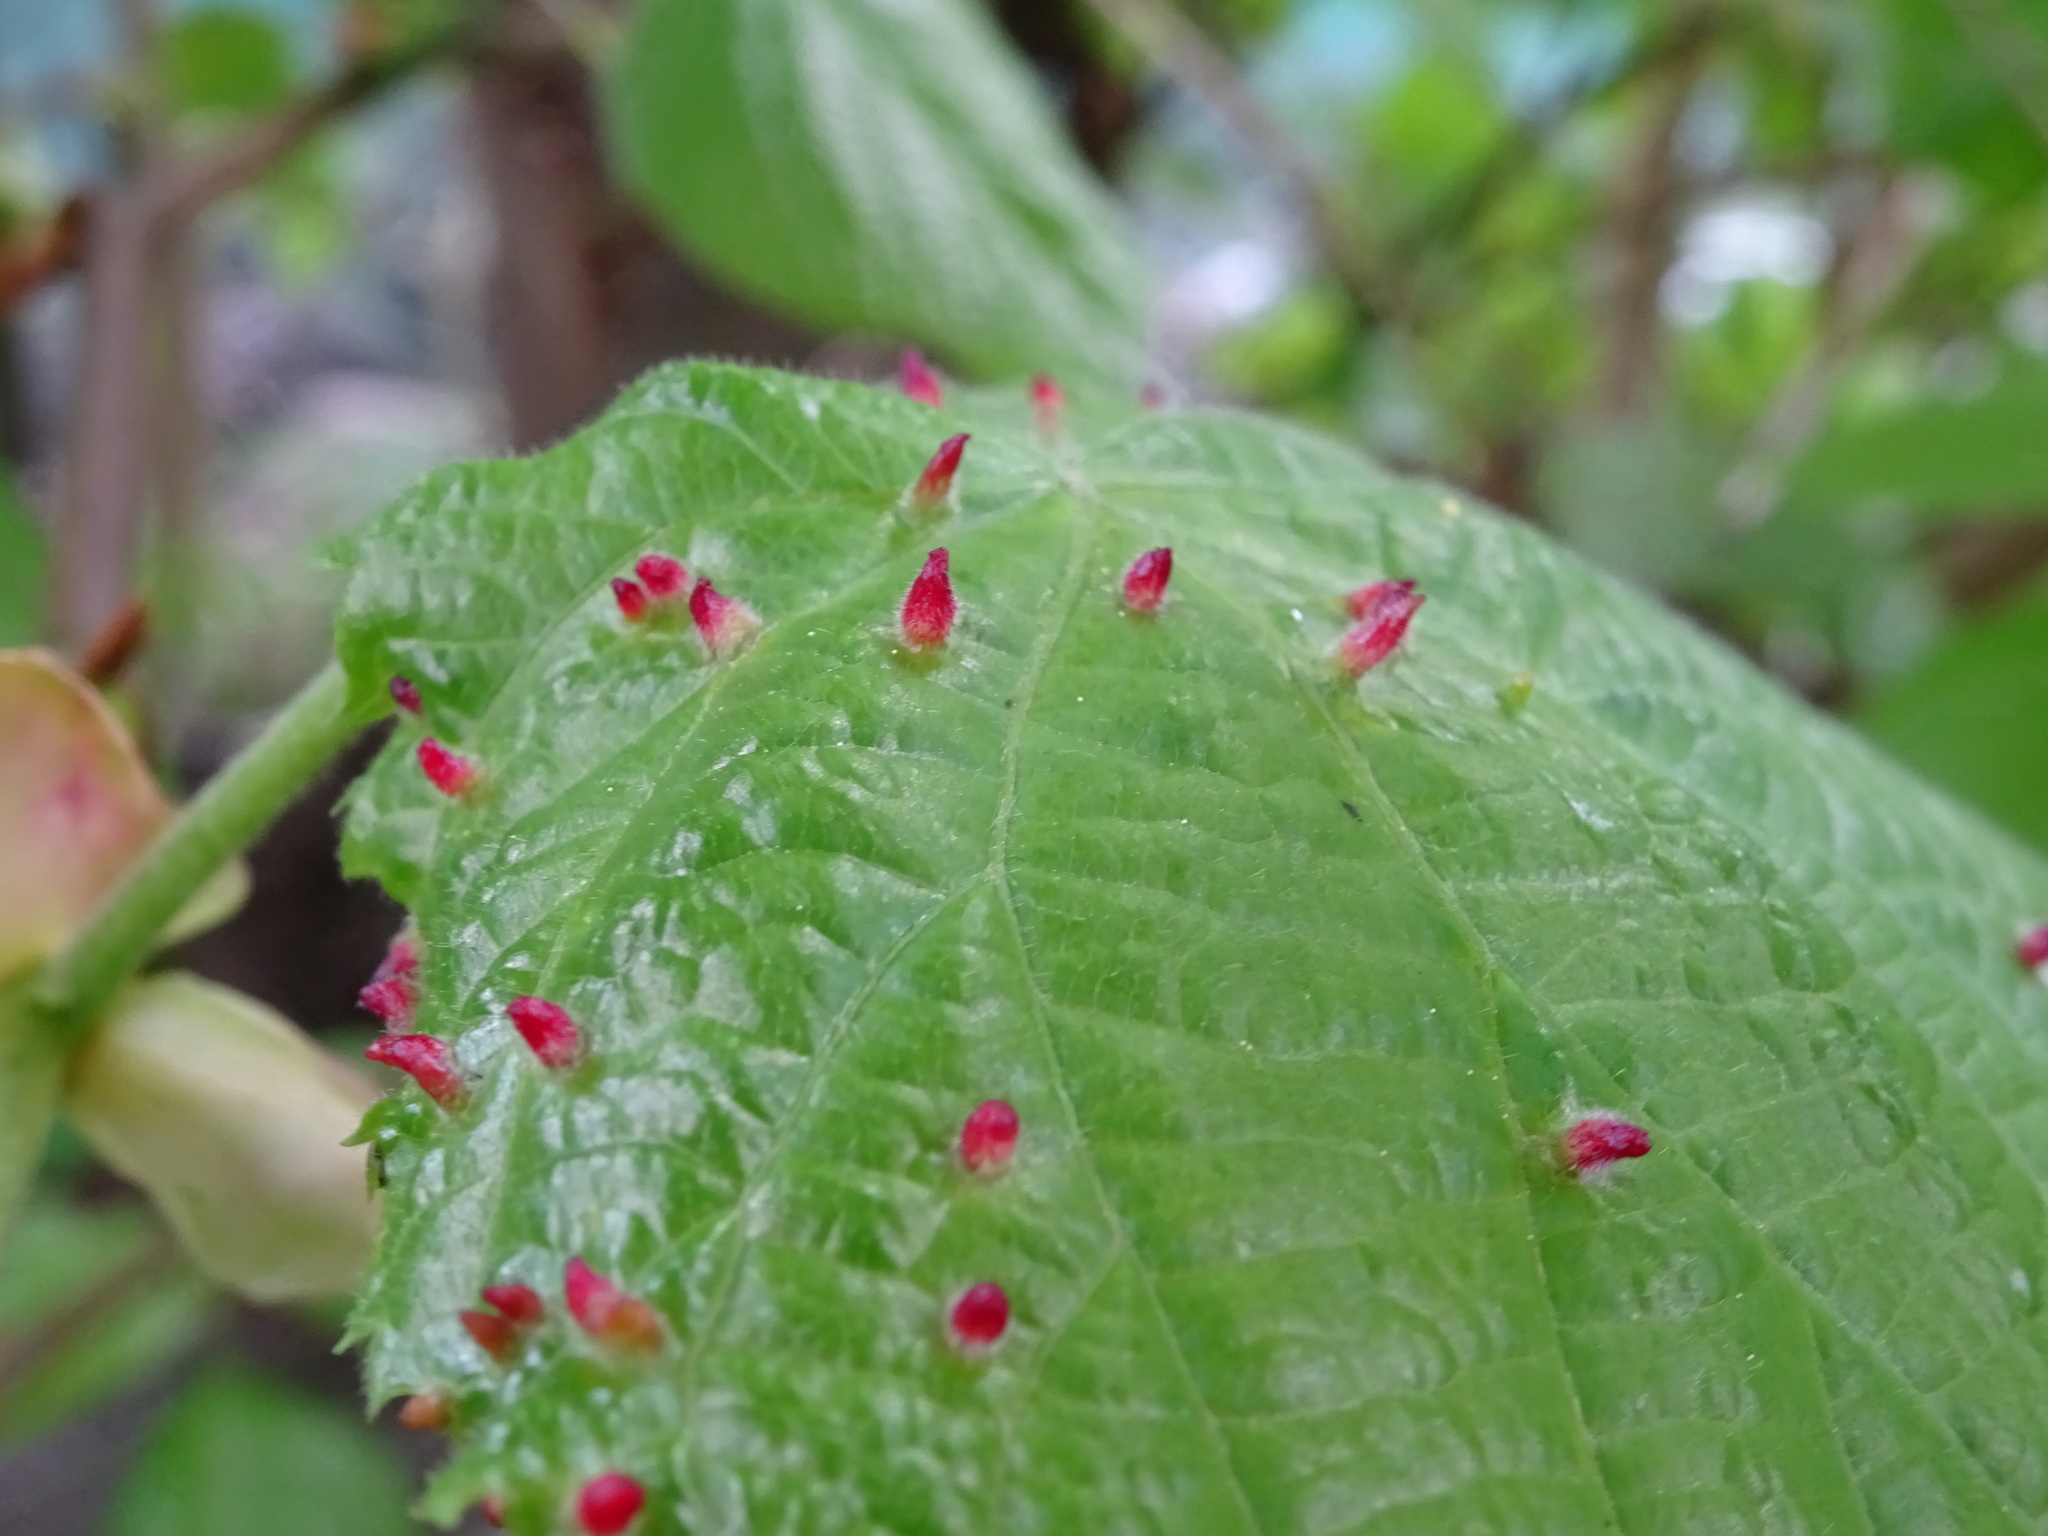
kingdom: Animalia
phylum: Arthropoda
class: Arachnida
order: Trombidiformes
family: Eriophyidae
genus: Eriophyes
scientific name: Eriophyes tiliae
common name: Red nail gall mite
